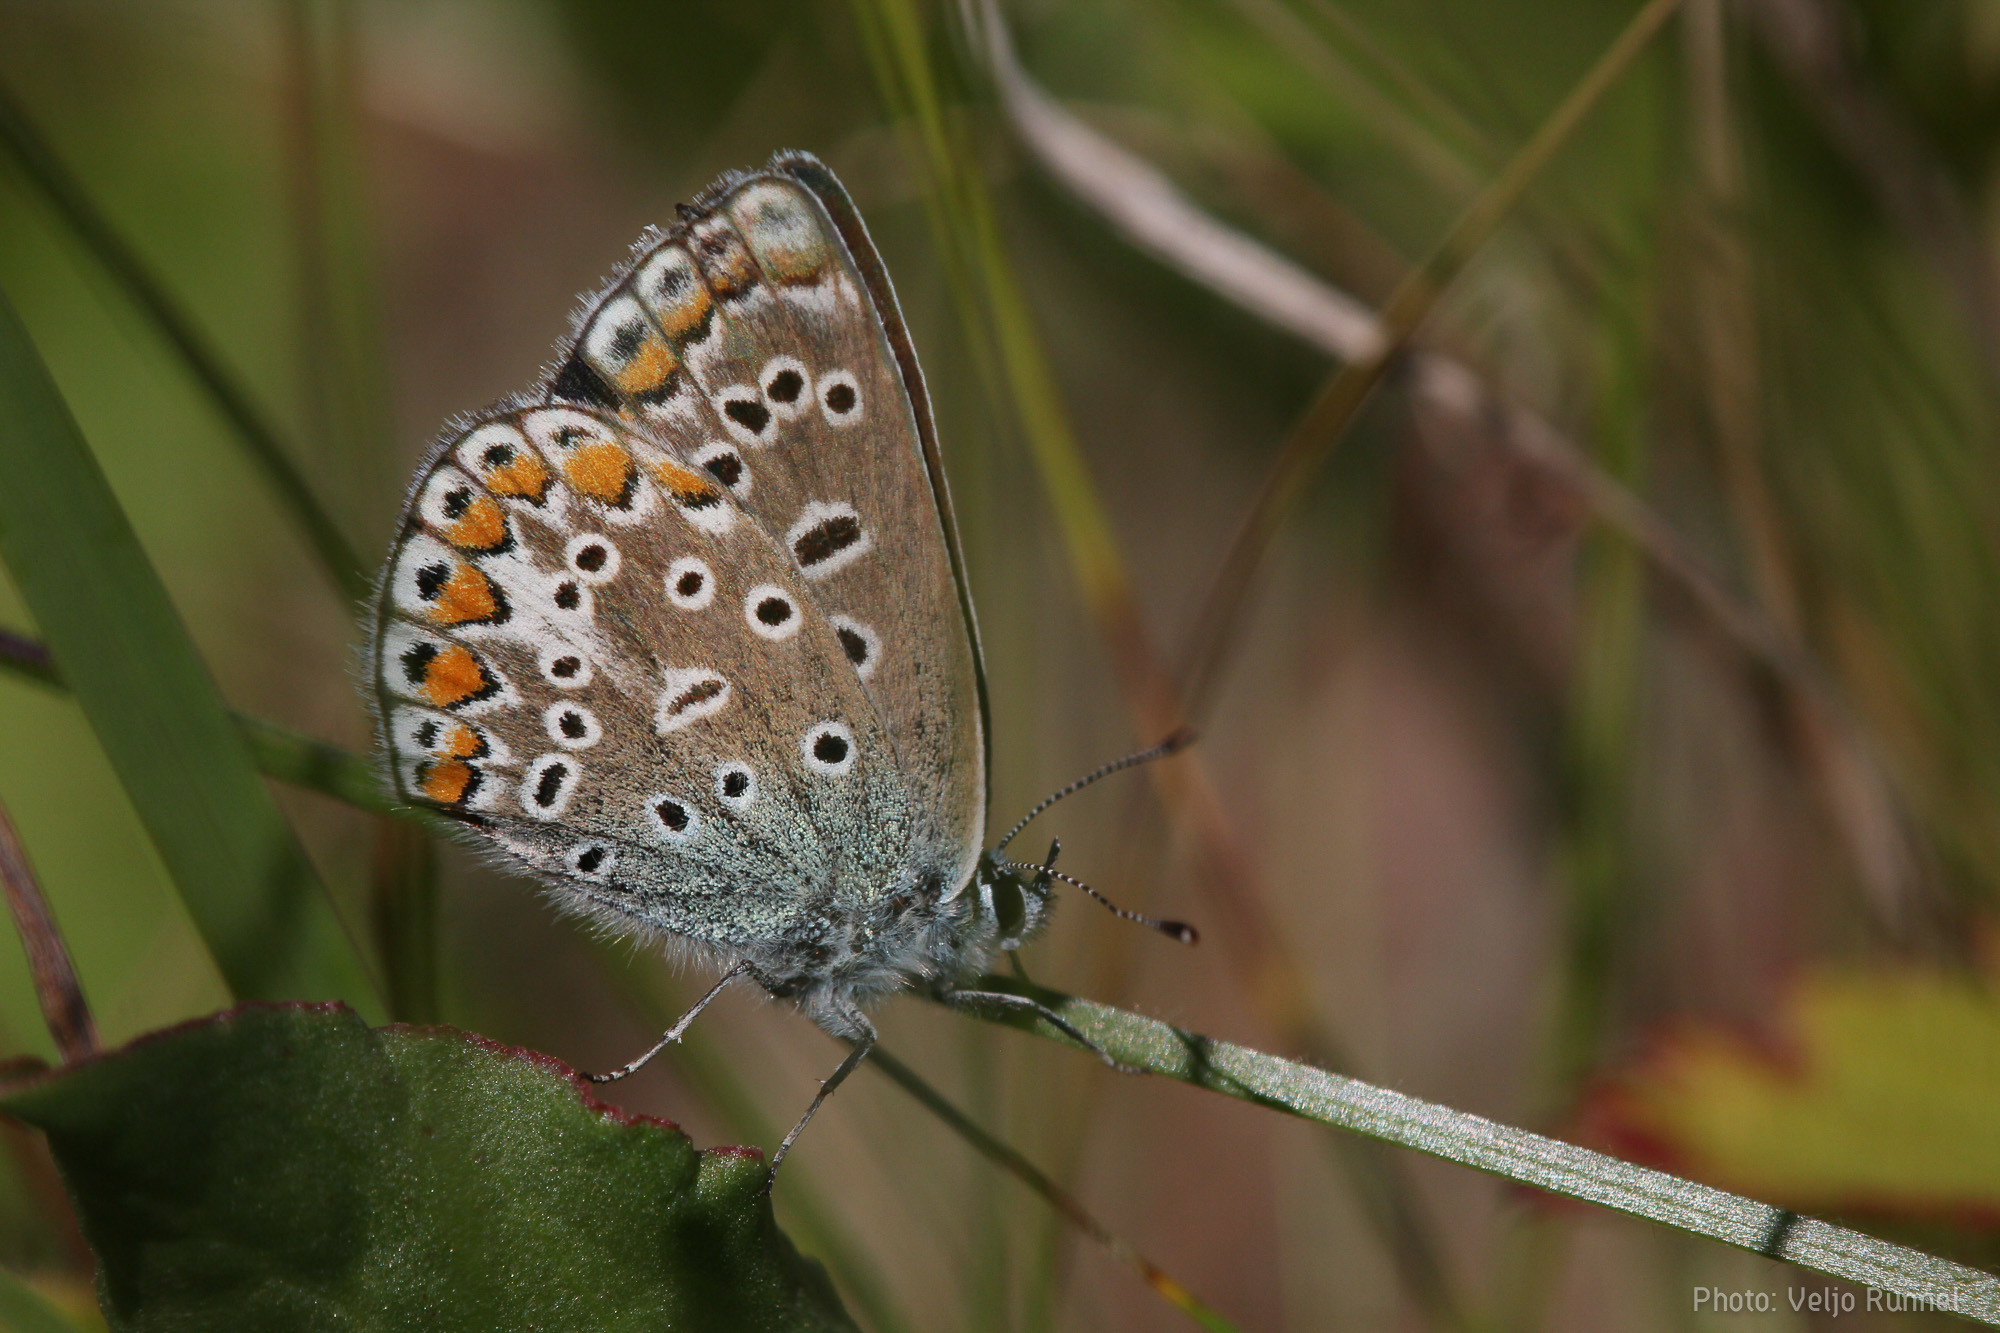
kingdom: Animalia
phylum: Arthropoda
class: Insecta
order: Lepidoptera
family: Lycaenidae
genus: Polyommatus
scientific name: Polyommatus icarus
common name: Common blue
